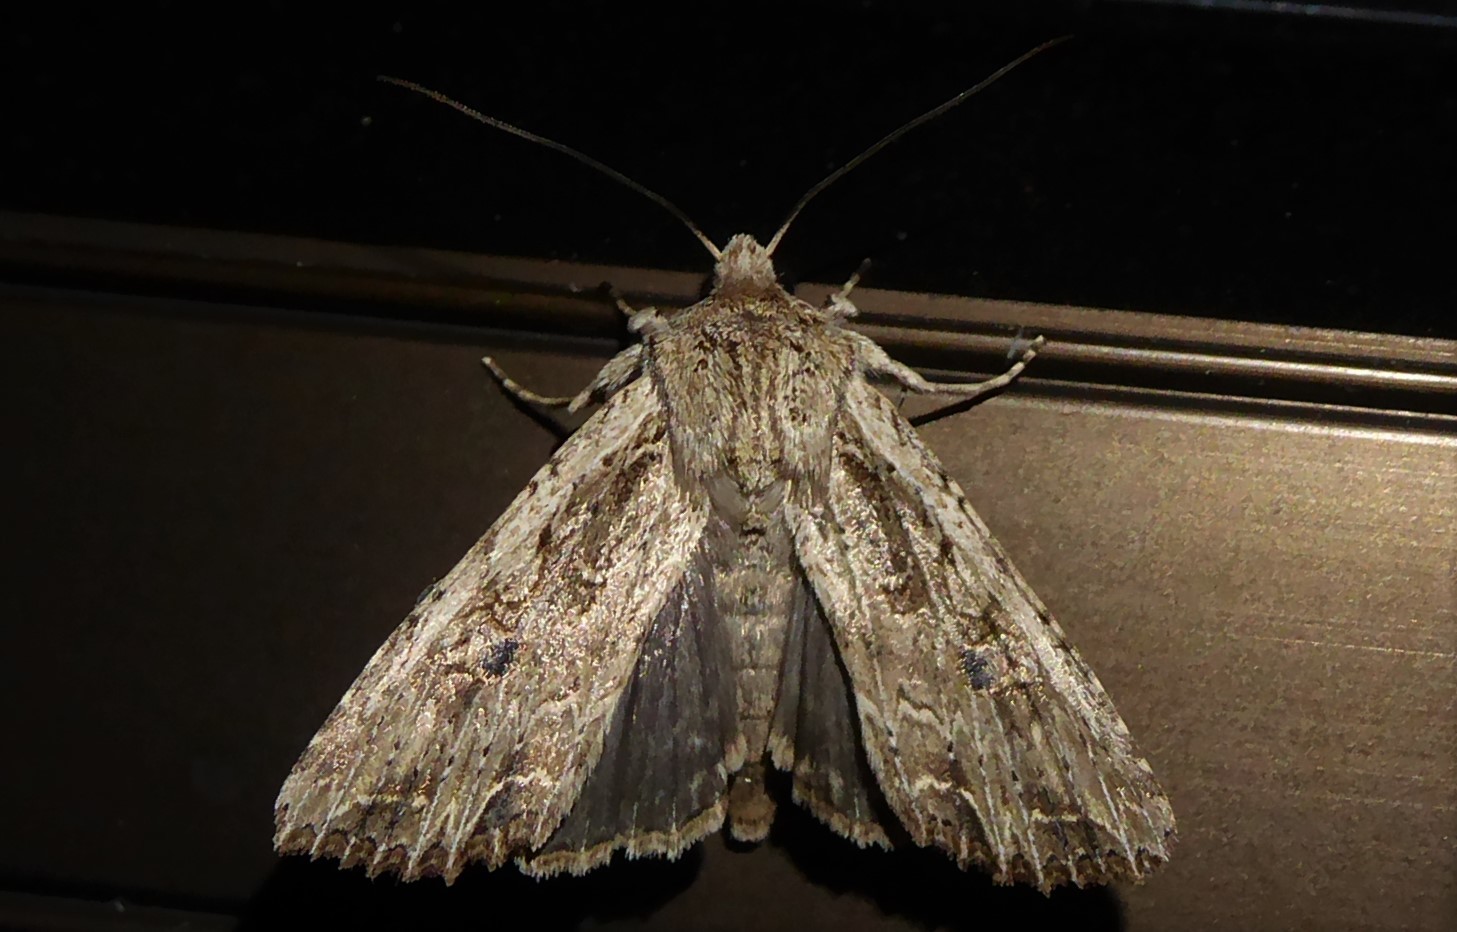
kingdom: Animalia
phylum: Arthropoda
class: Insecta
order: Lepidoptera
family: Noctuidae
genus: Ichneutica
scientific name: Ichneutica lignana
